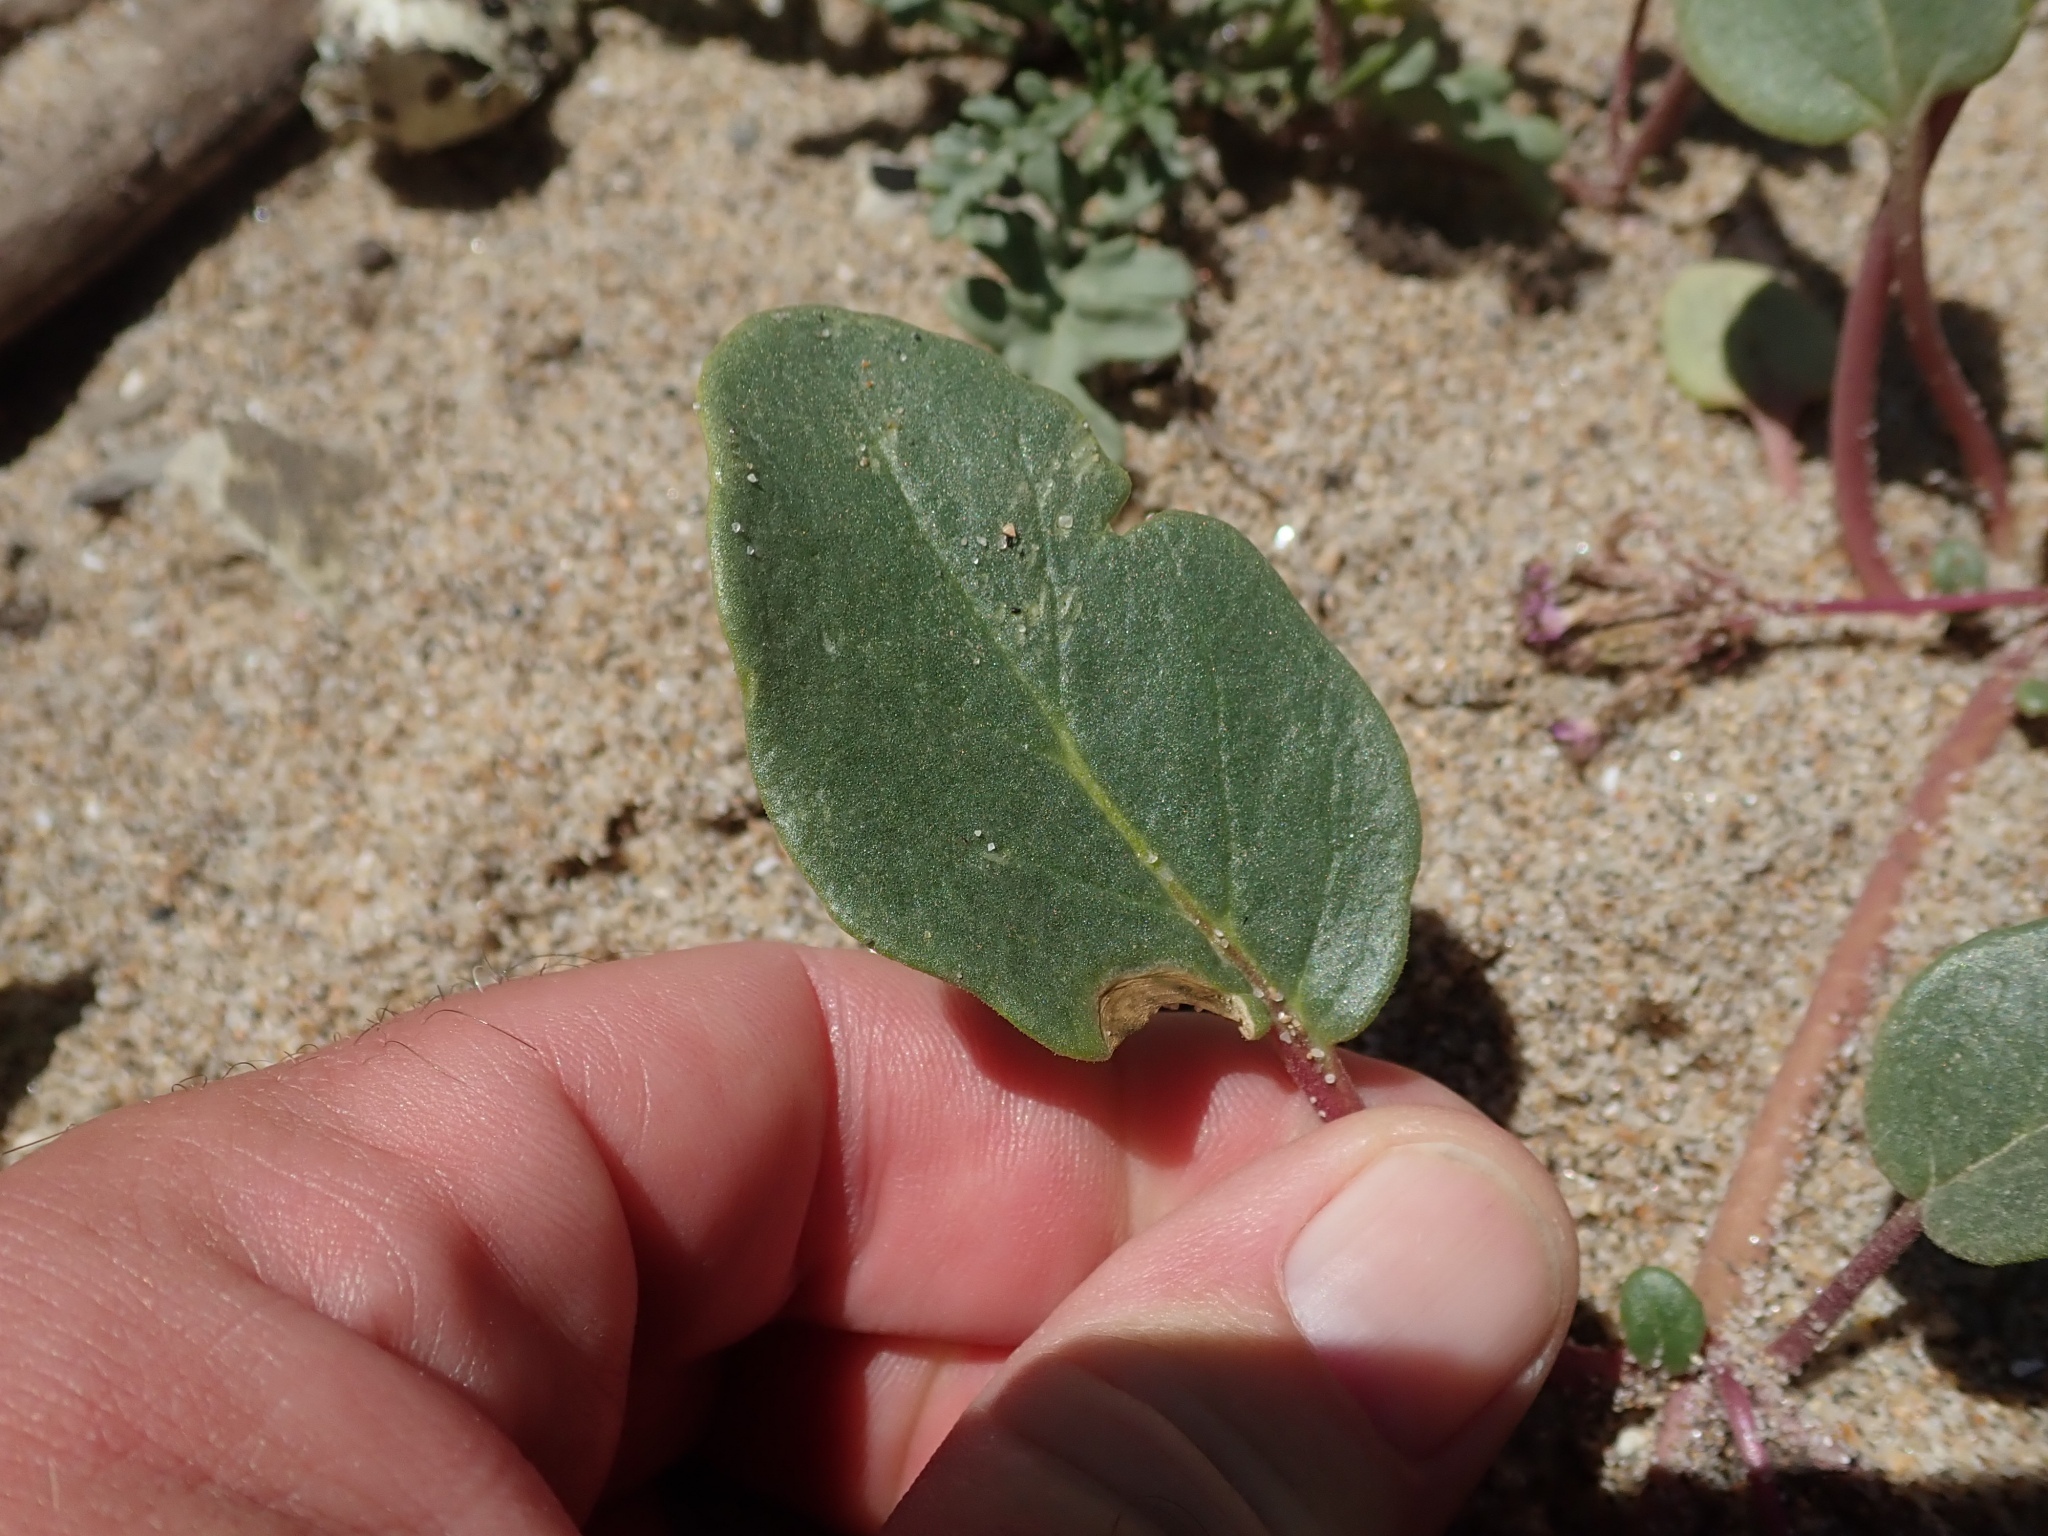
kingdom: Plantae
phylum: Tracheophyta
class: Magnoliopsida
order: Caryophyllales
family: Nyctaginaceae
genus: Abronia
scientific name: Abronia umbellata
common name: Sand-verbena
